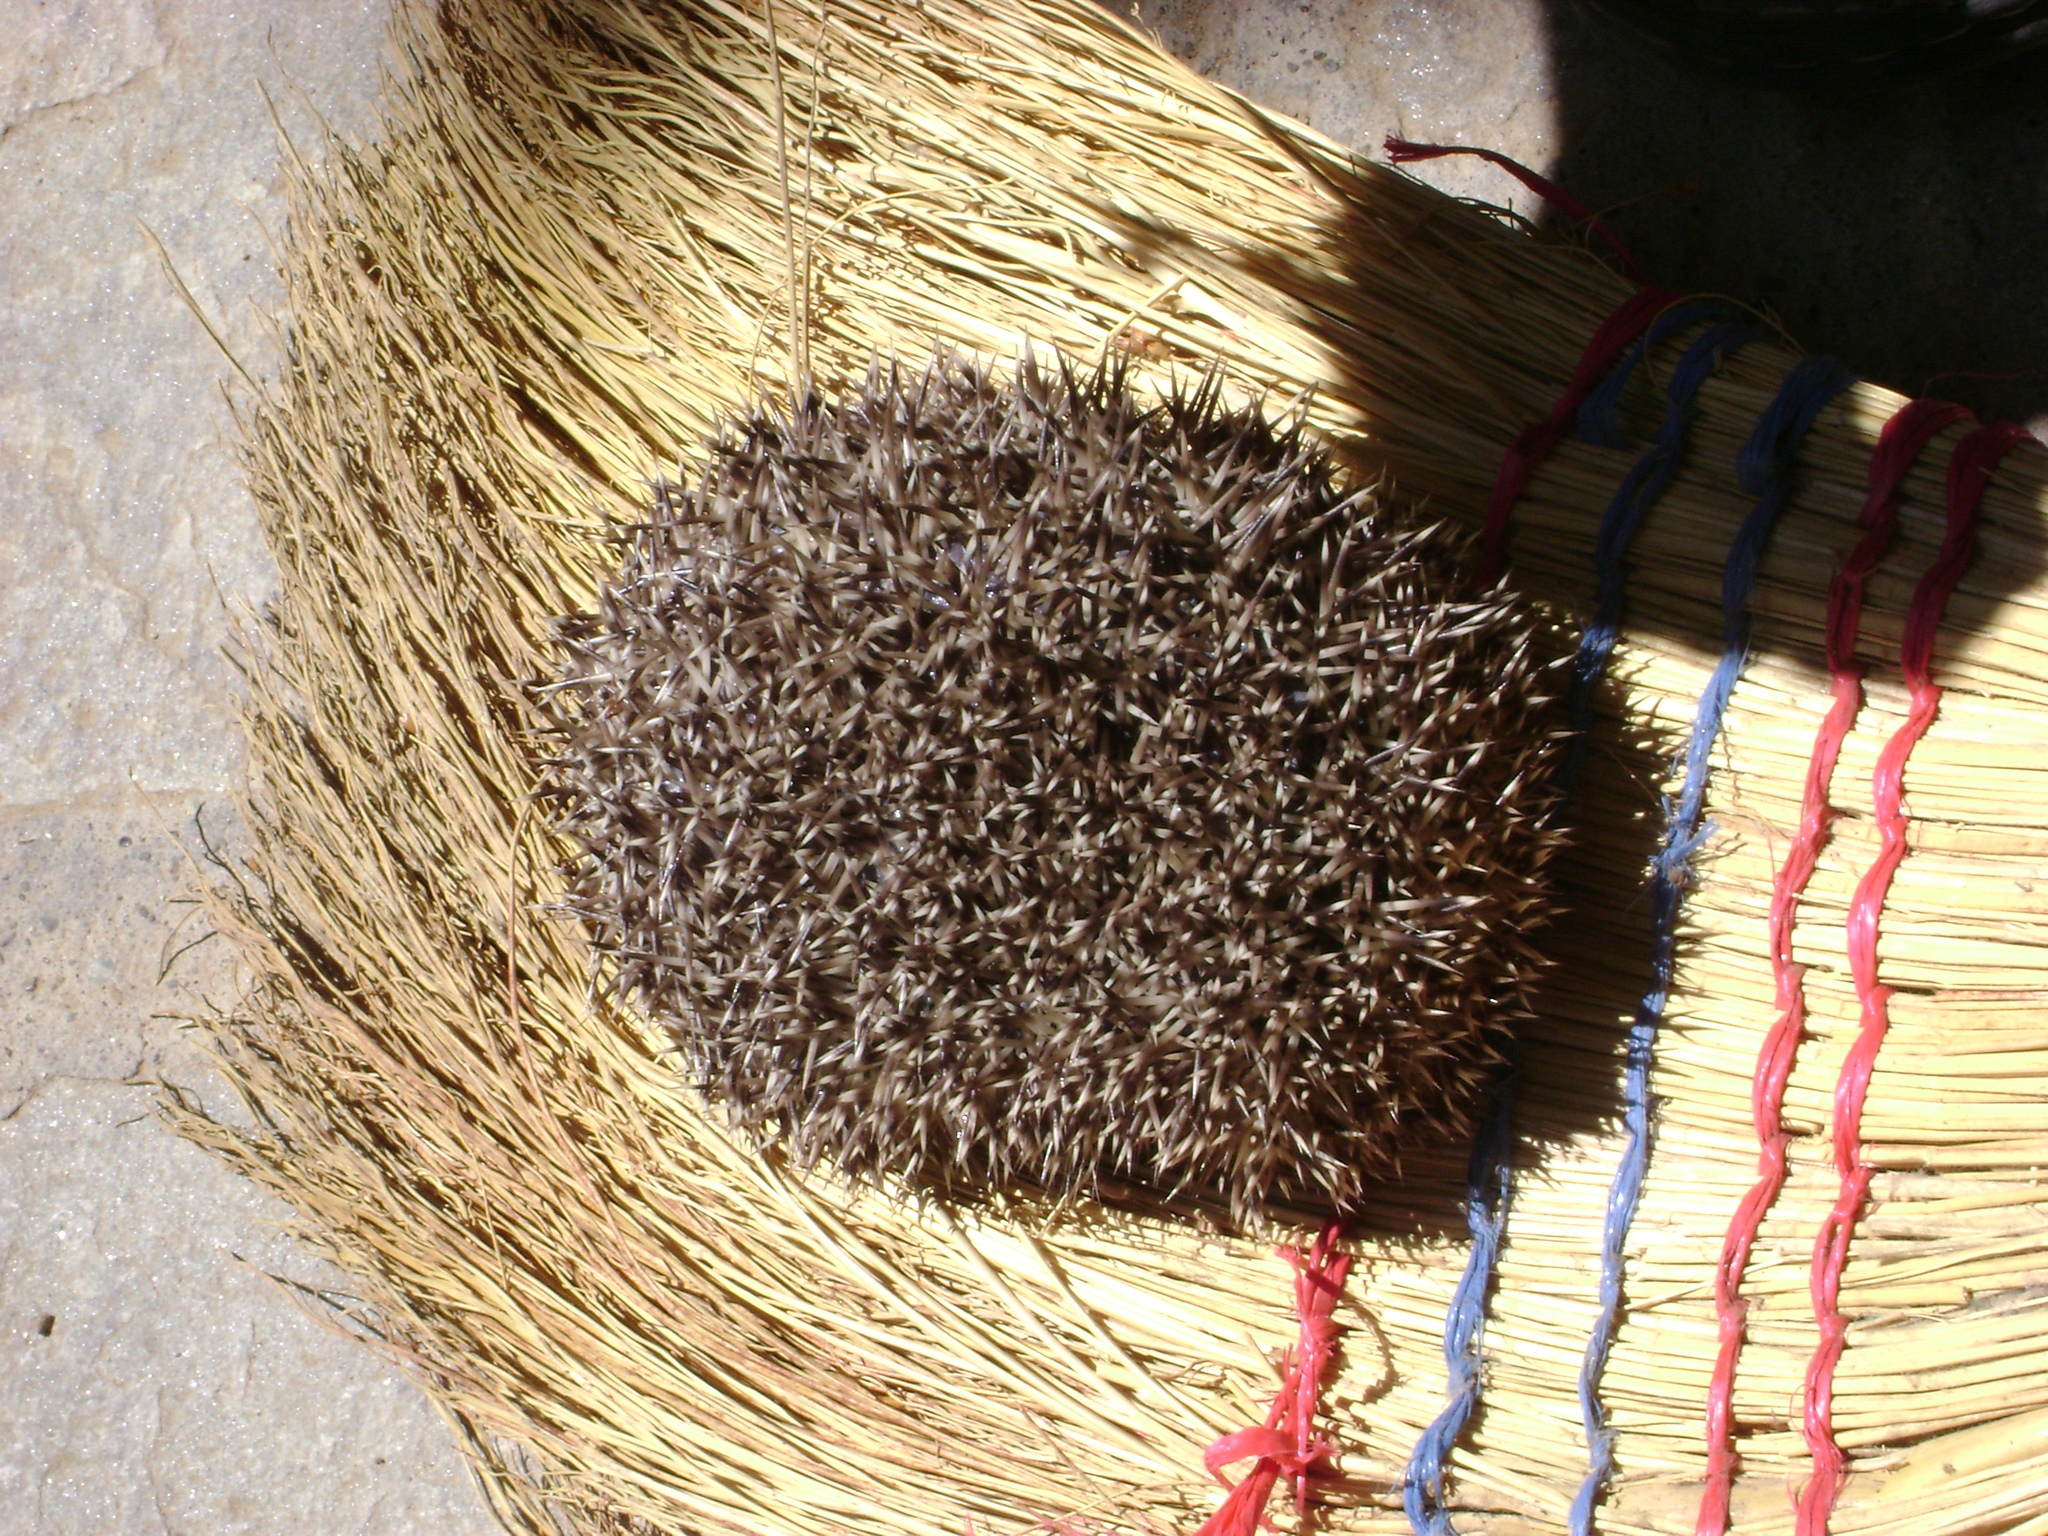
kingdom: Animalia
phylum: Chordata
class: Mammalia
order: Erinaceomorpha
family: Erinaceidae
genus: Erinaceus
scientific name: Erinaceus roumanicus
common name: Northern white-breasted hedgehog
